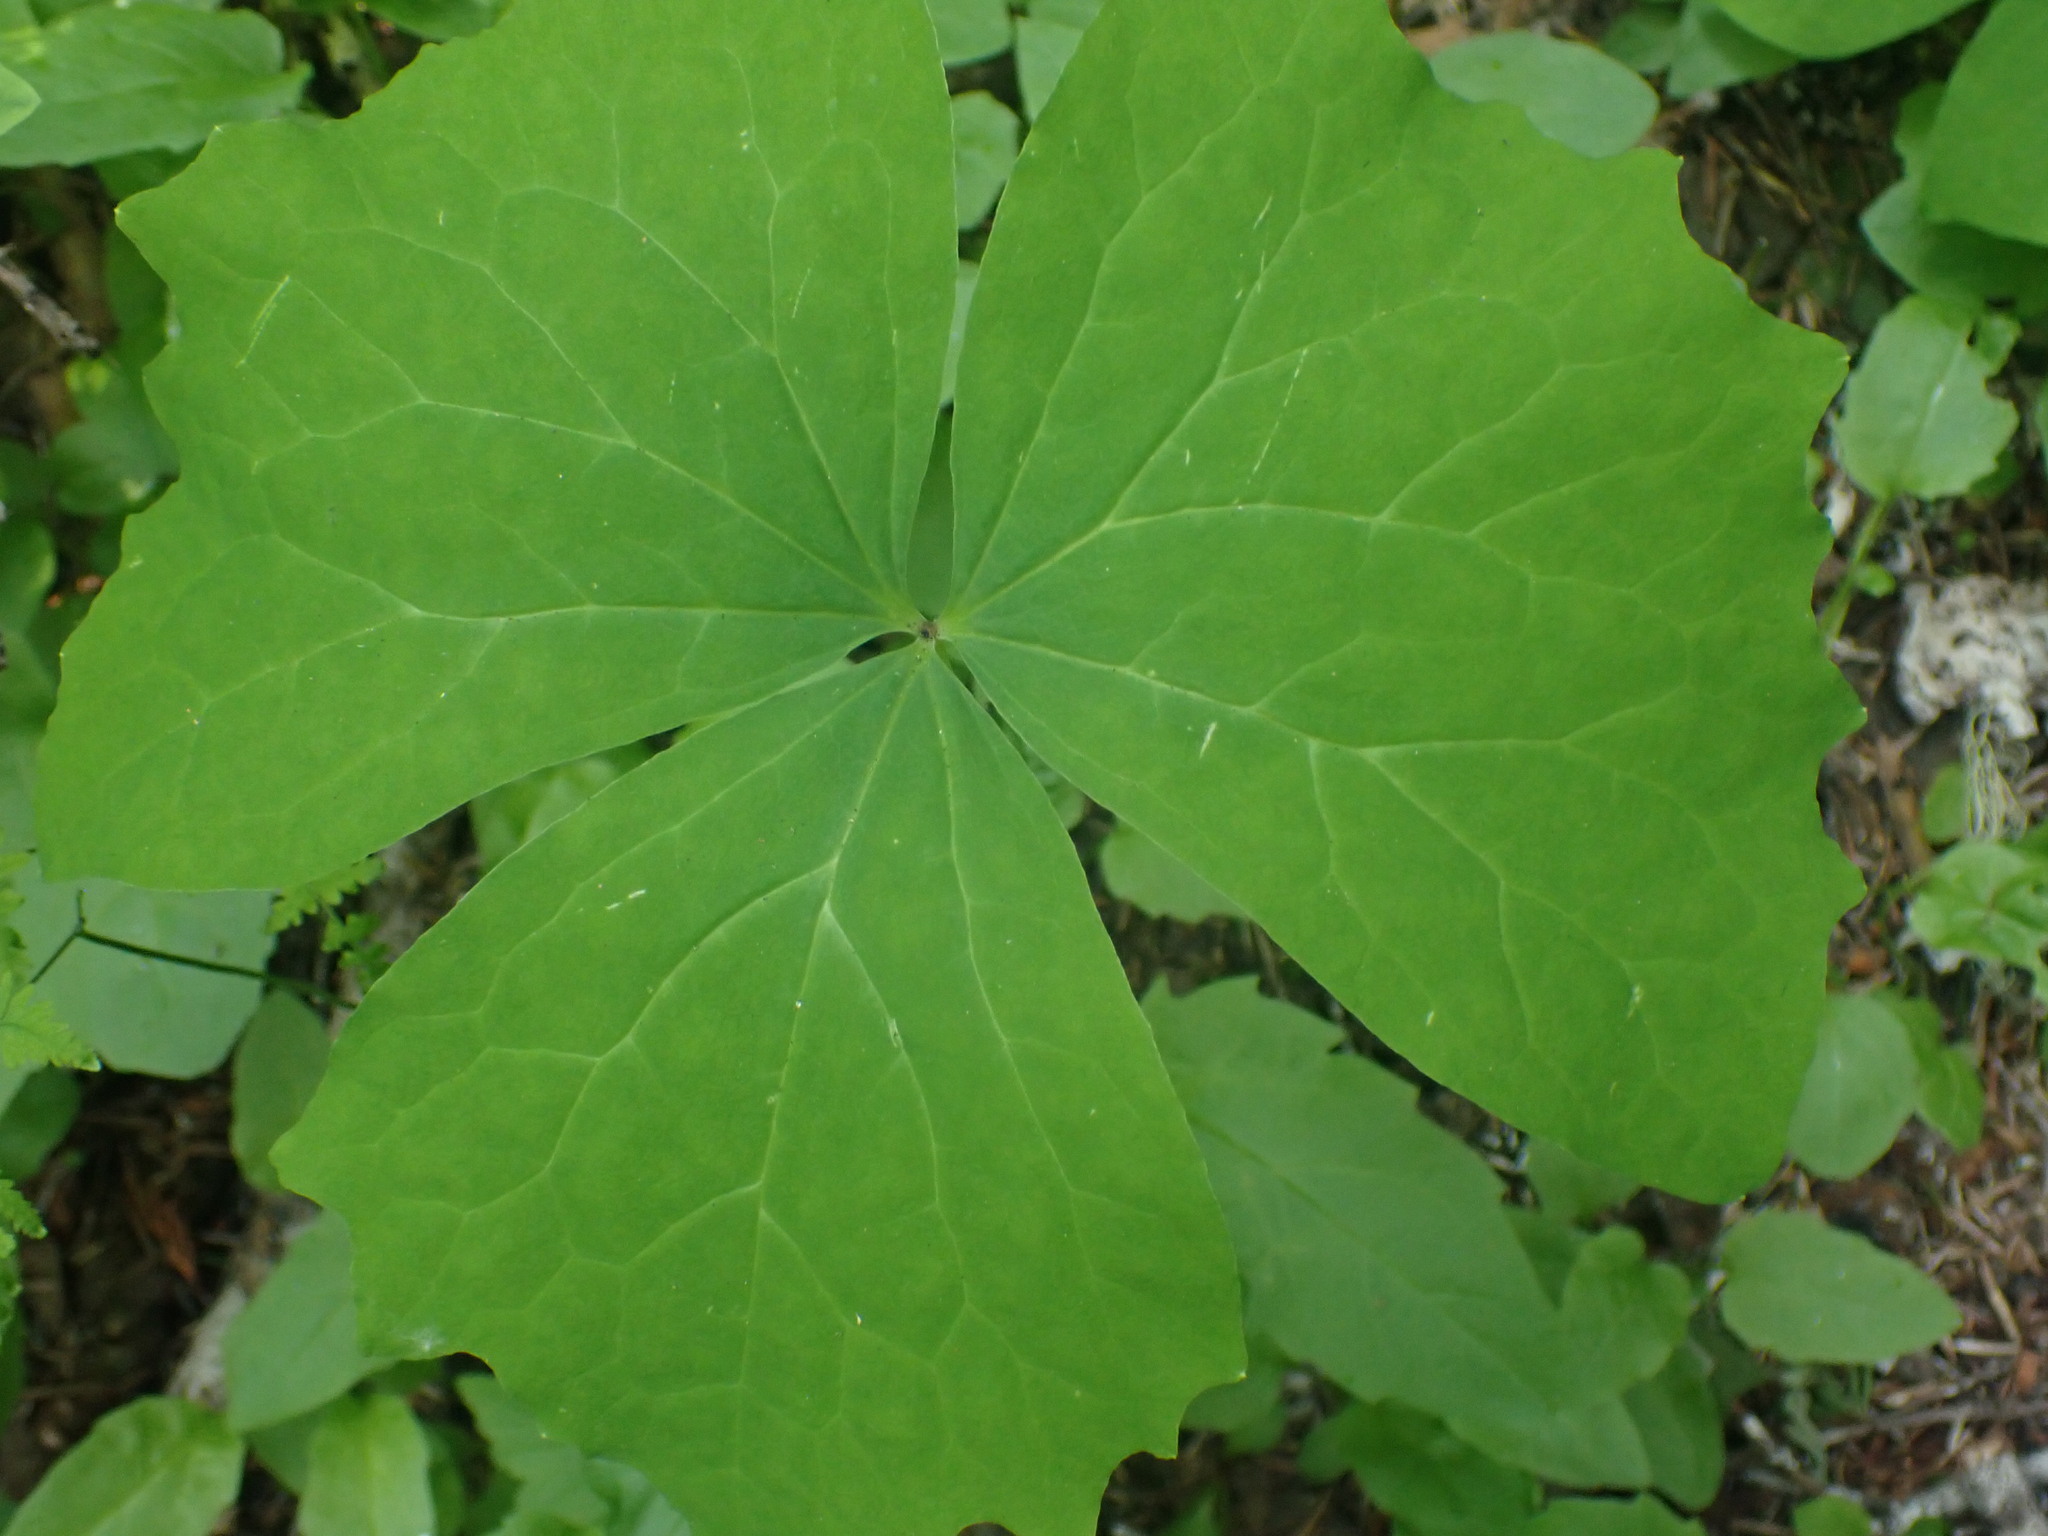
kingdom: Plantae
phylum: Tracheophyta
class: Magnoliopsida
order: Ranunculales
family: Berberidaceae
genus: Achlys
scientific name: Achlys triphylla
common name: Vanilla-leaf
